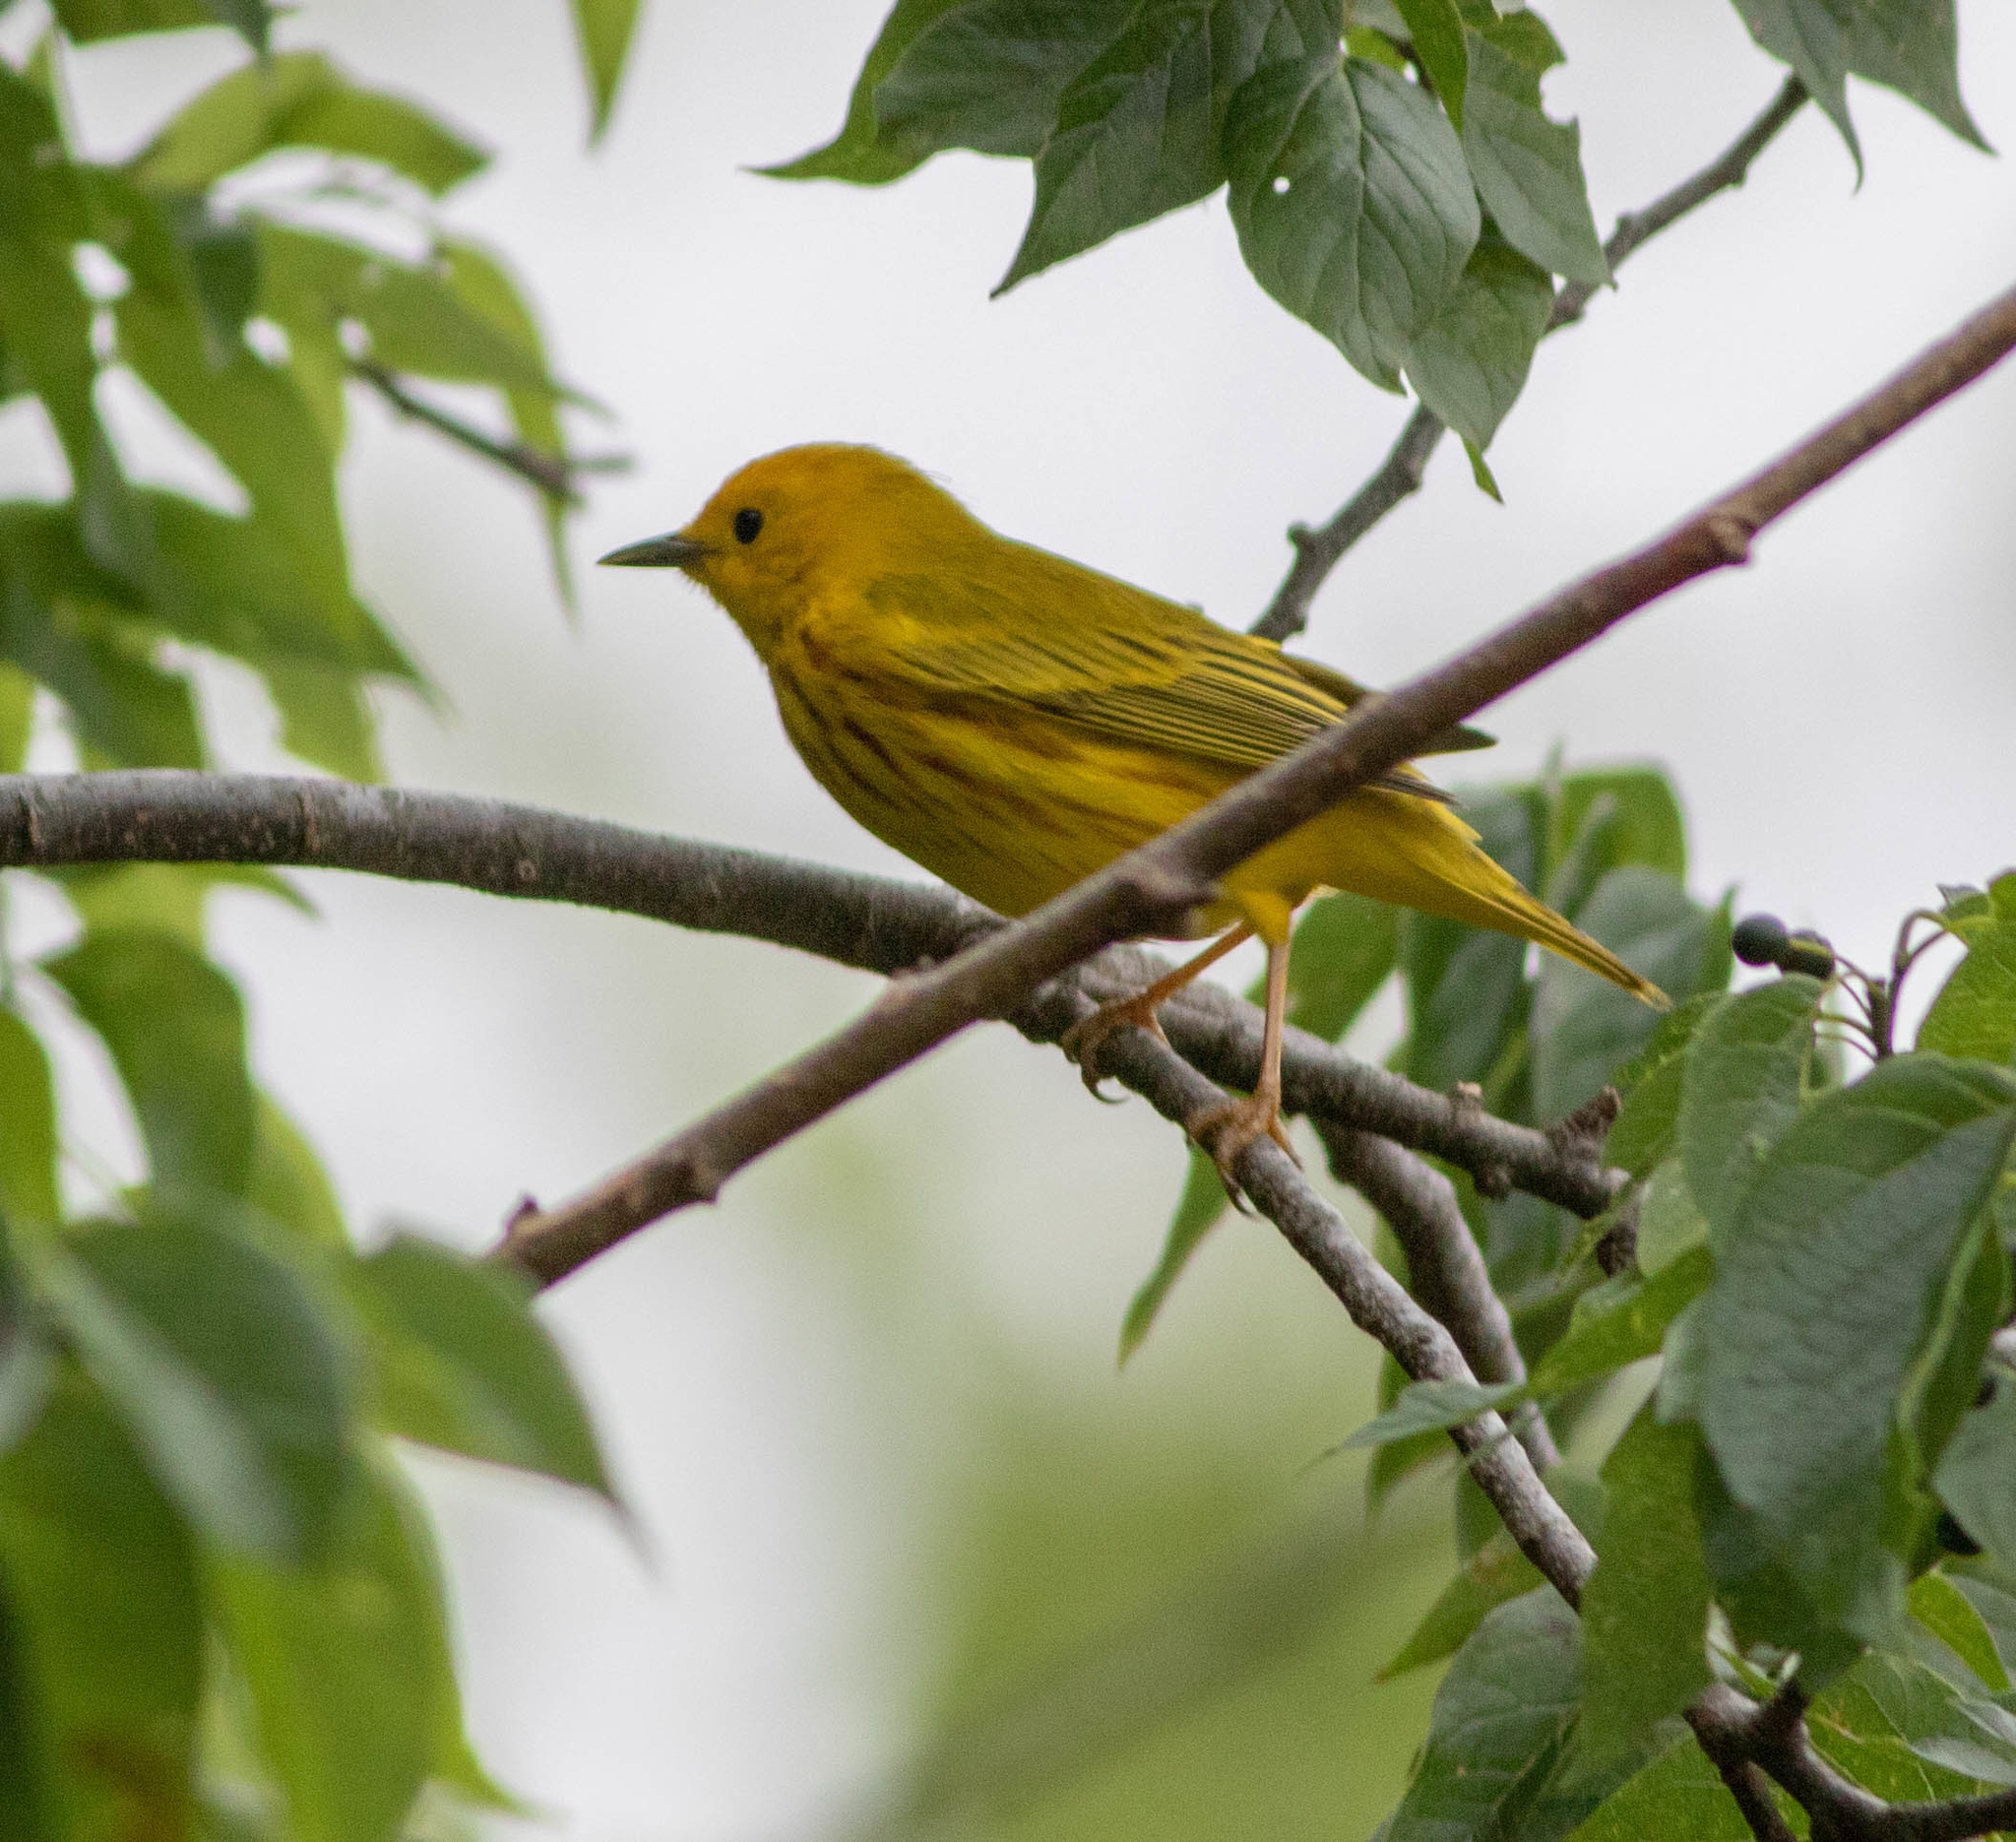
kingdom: Animalia
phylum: Chordata
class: Aves
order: Passeriformes
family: Parulidae
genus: Setophaga
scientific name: Setophaga petechia
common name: Yellow warbler
